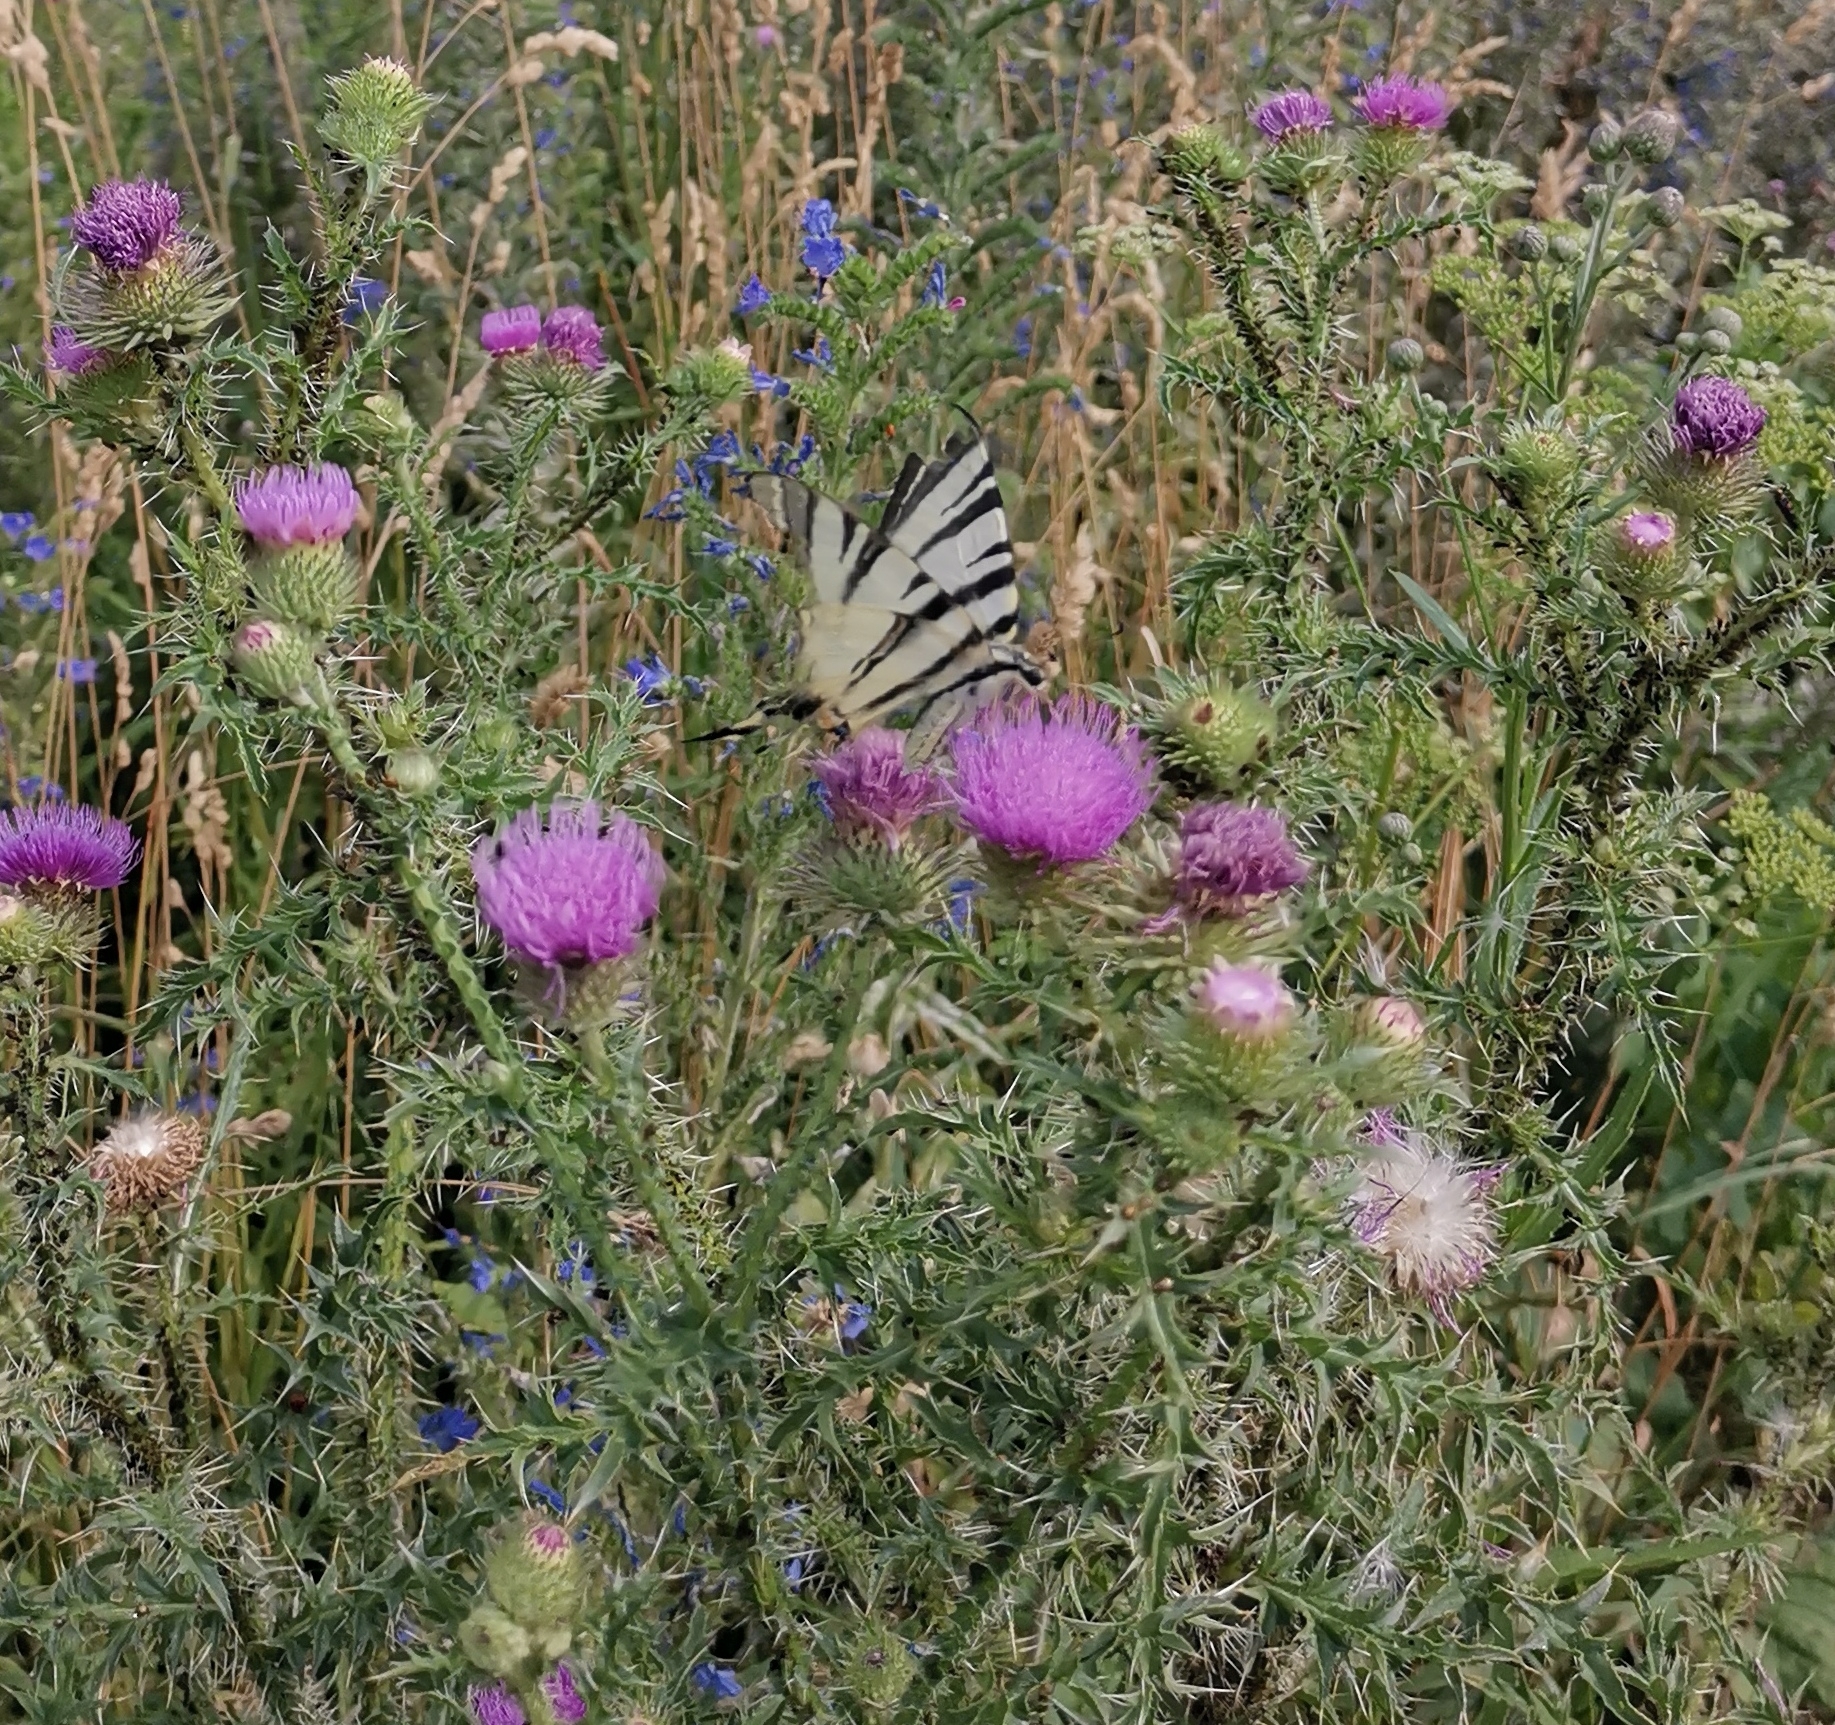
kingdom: Animalia
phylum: Arthropoda
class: Insecta
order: Lepidoptera
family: Papilionidae
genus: Iphiclides
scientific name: Iphiclides podalirius
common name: Scarce swallowtail
